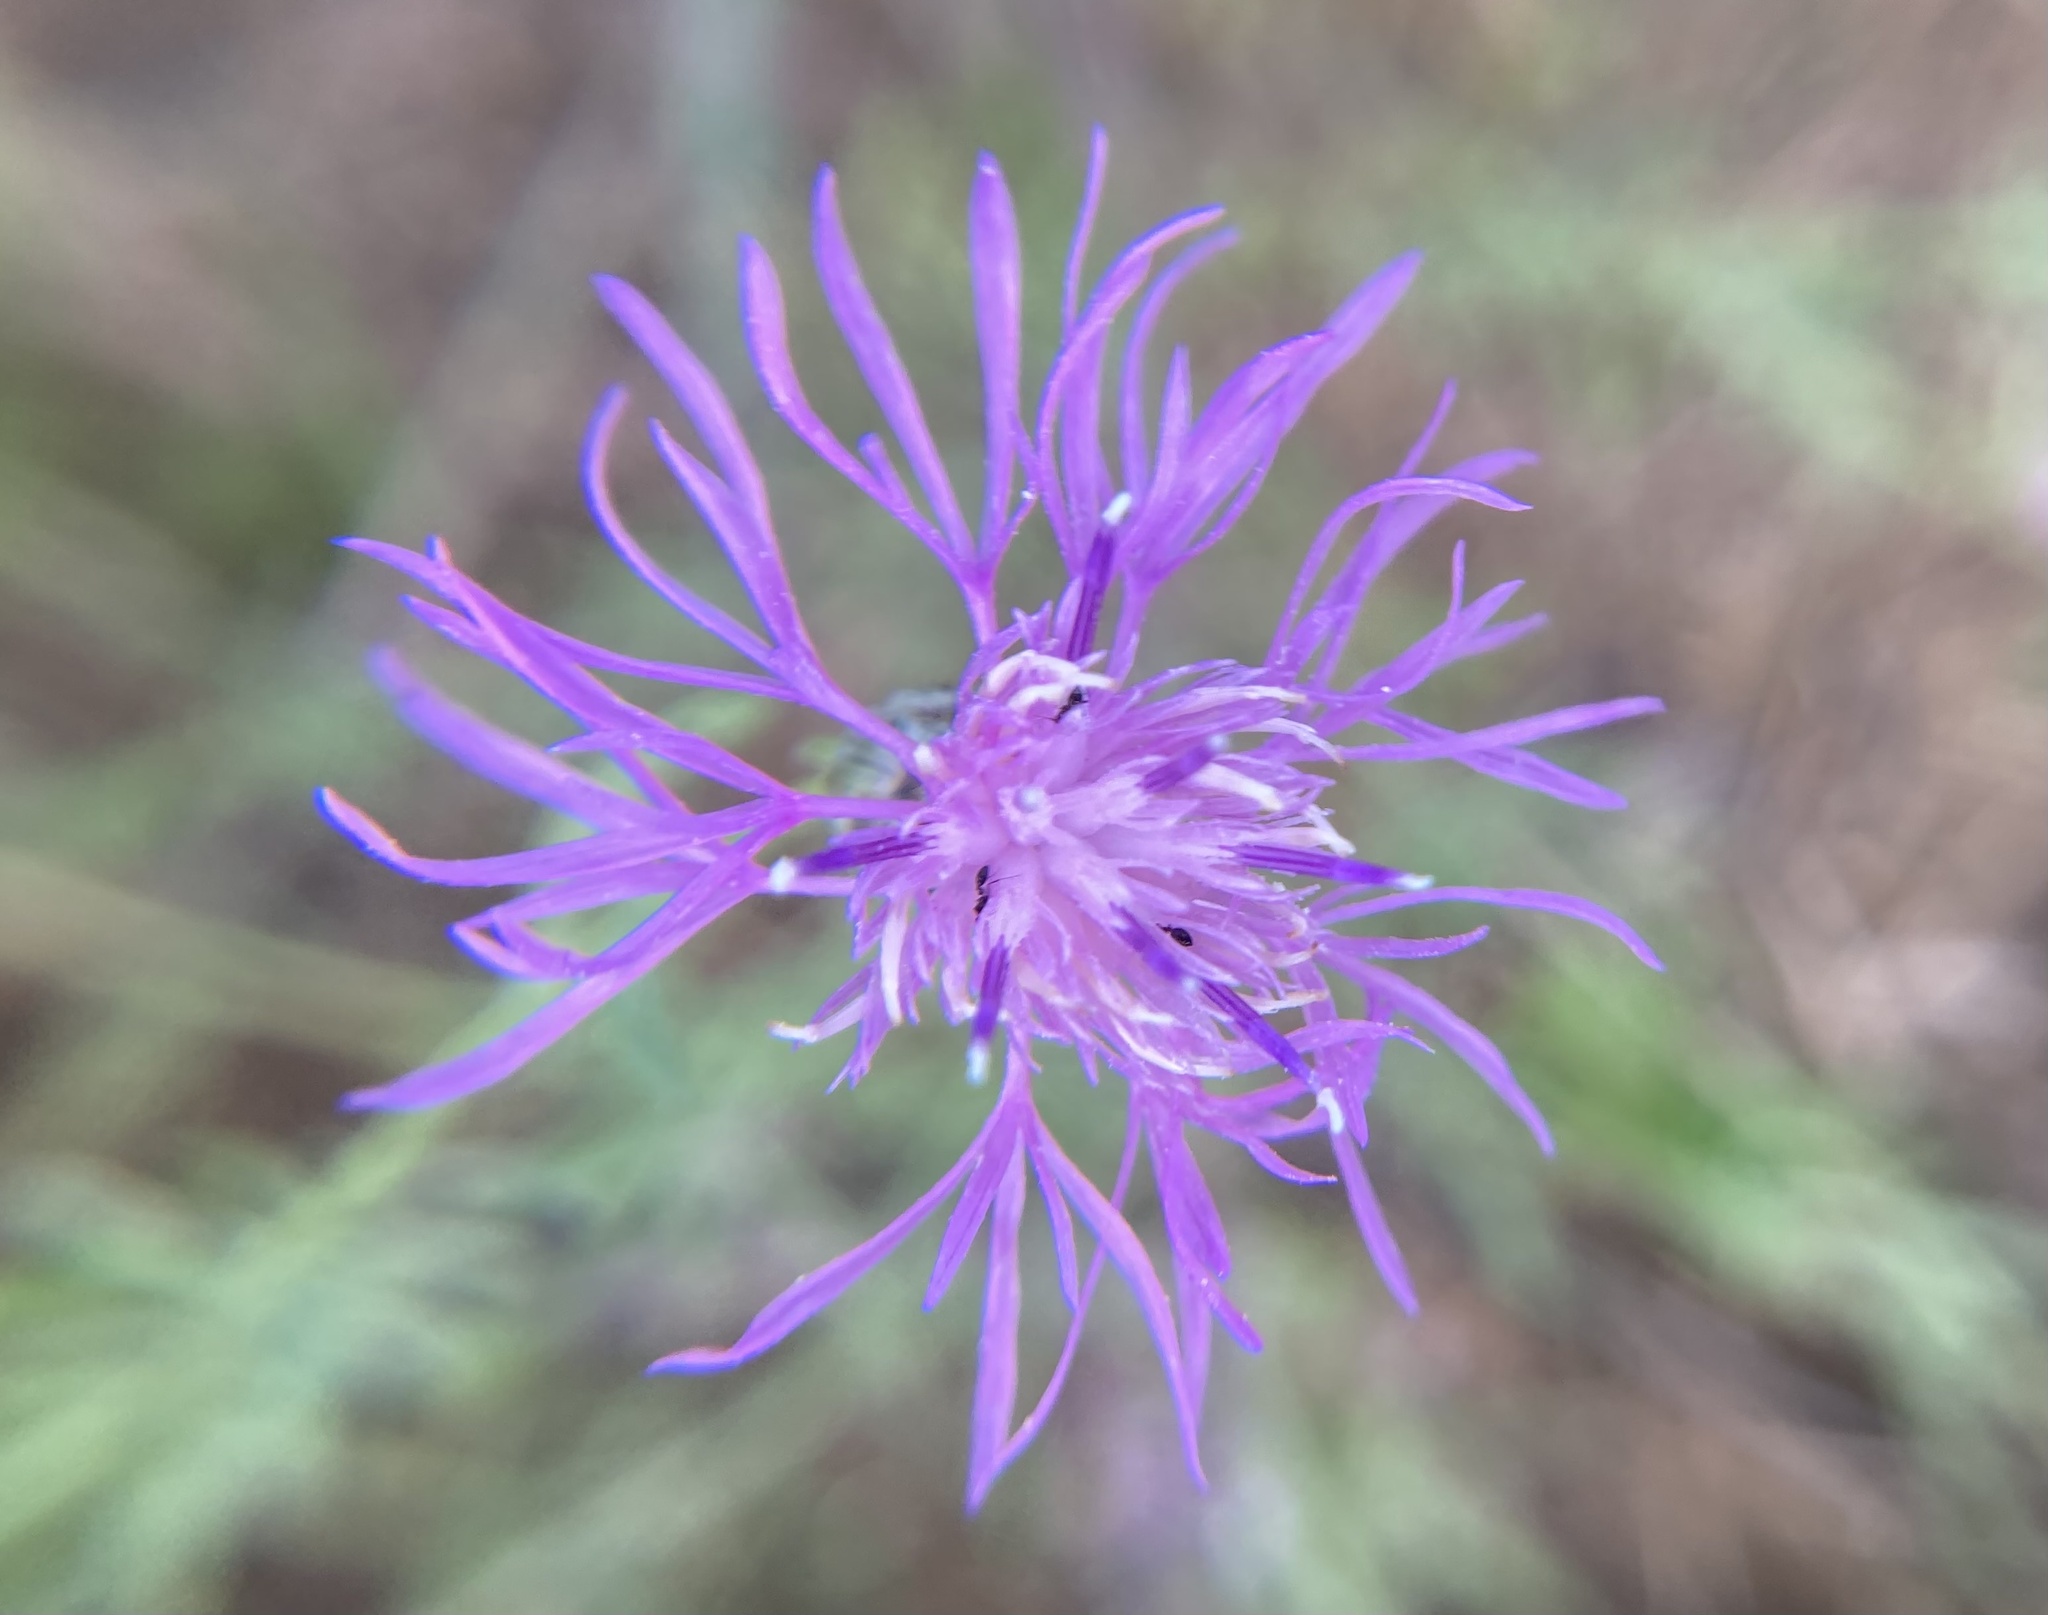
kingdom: Plantae
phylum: Tracheophyta
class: Magnoliopsida
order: Asterales
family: Asteraceae
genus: Centaurea
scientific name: Centaurea stoebe
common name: Spotted knapweed
